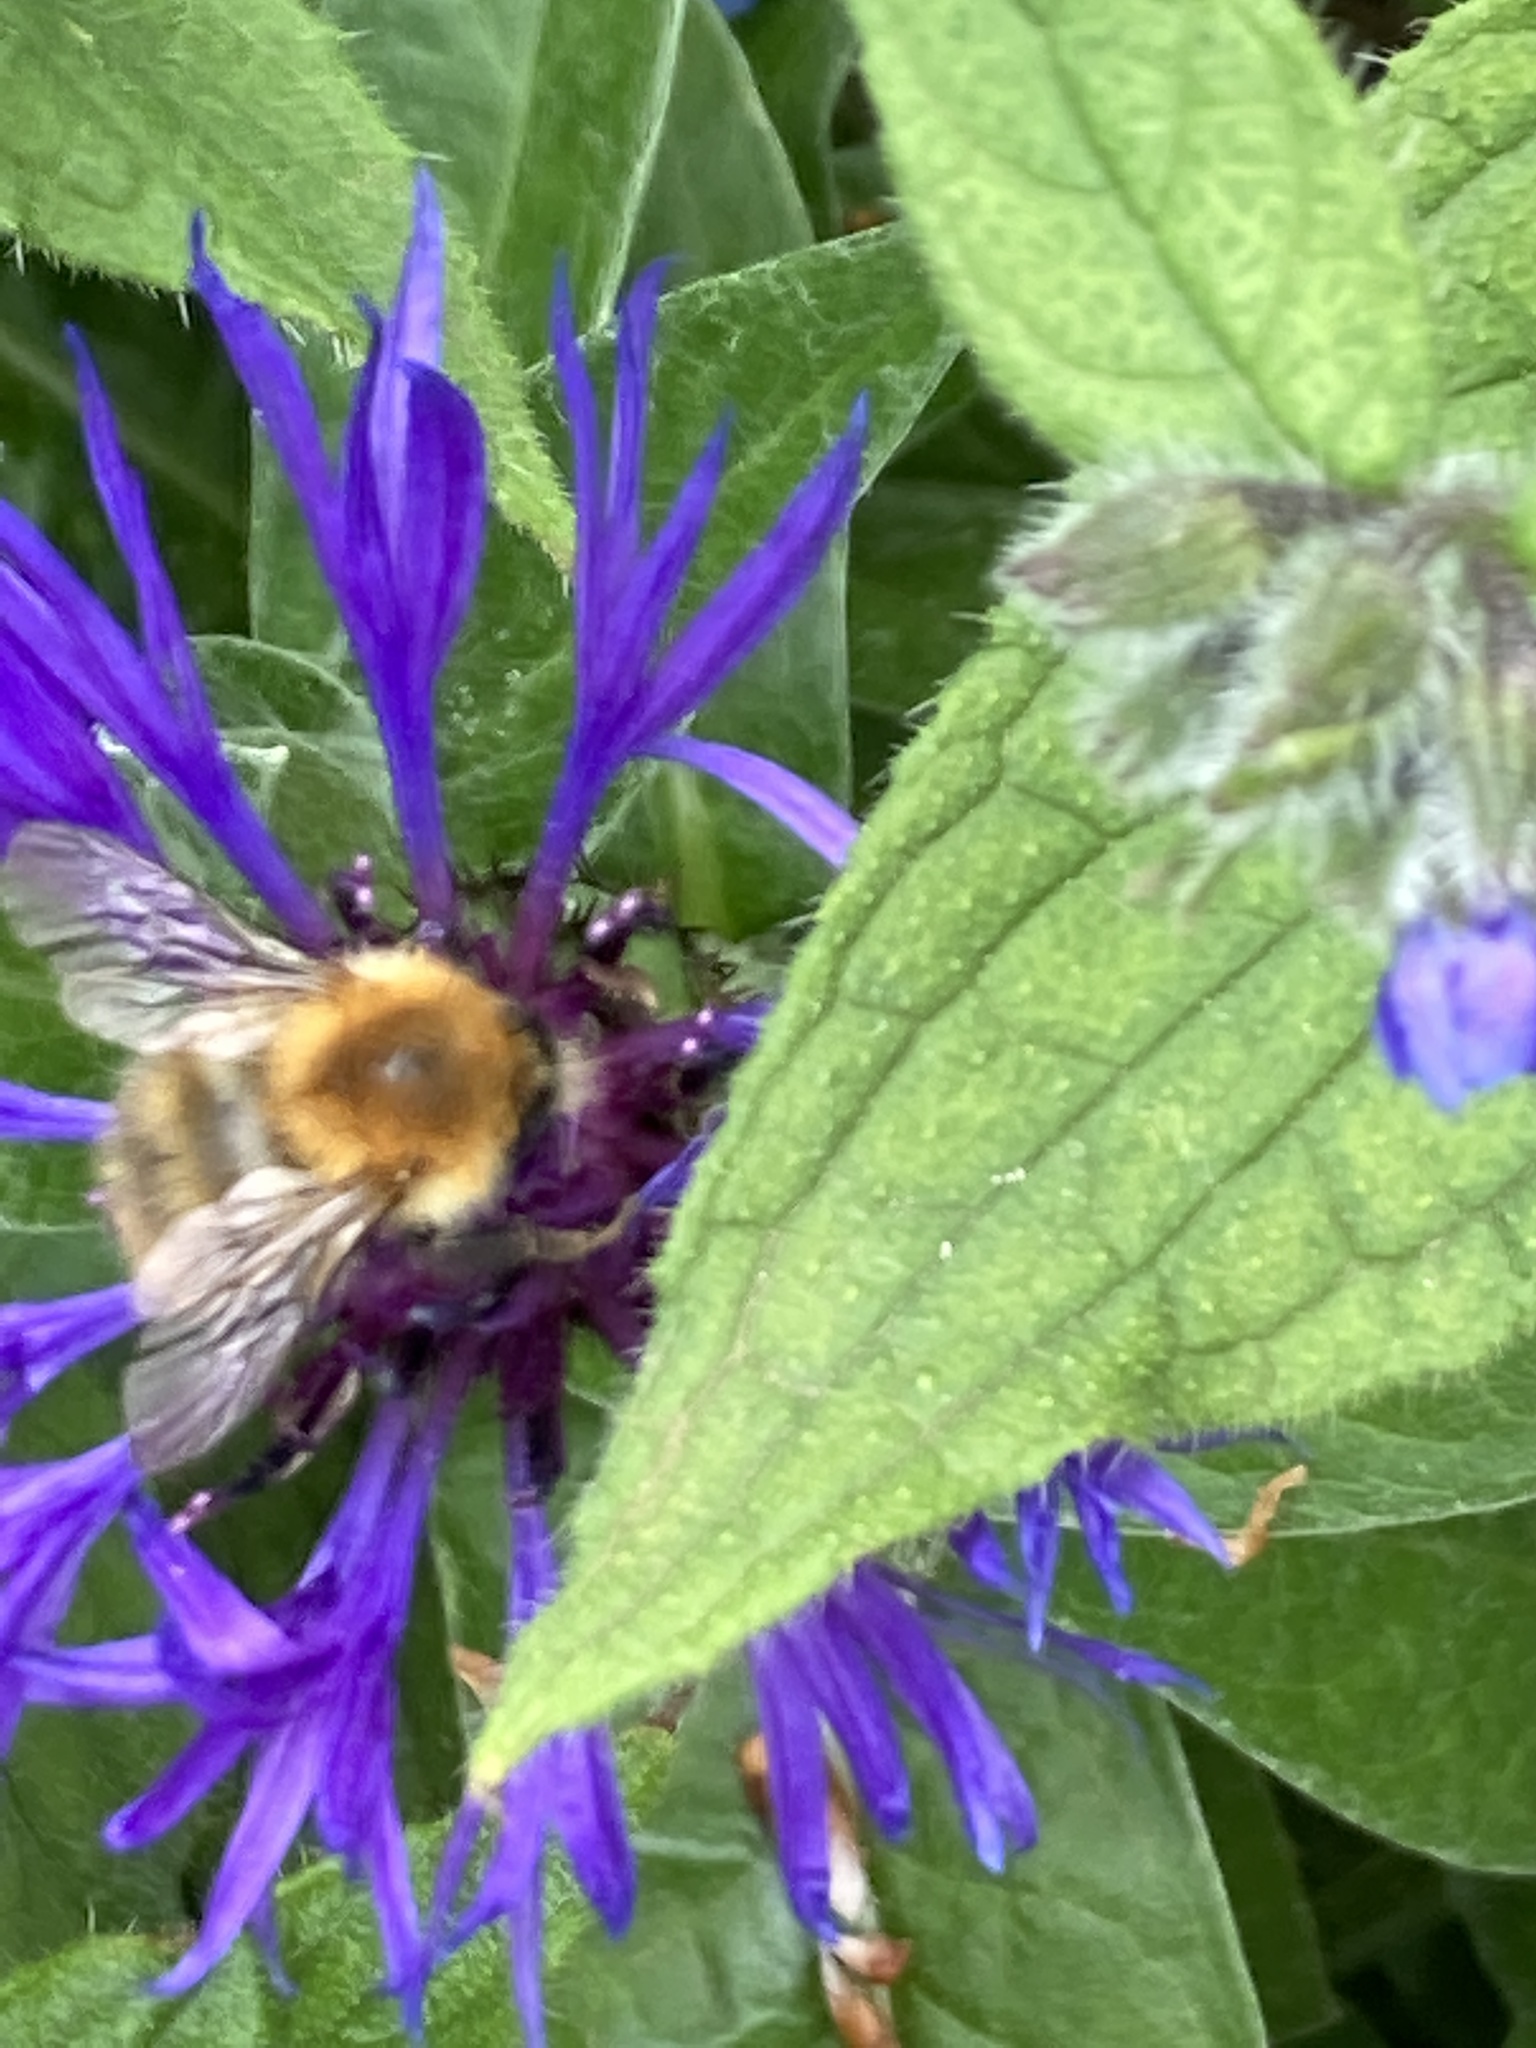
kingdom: Animalia
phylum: Arthropoda
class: Insecta
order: Hymenoptera
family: Apidae
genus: Bombus
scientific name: Bombus pascuorum
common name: Common carder bee
